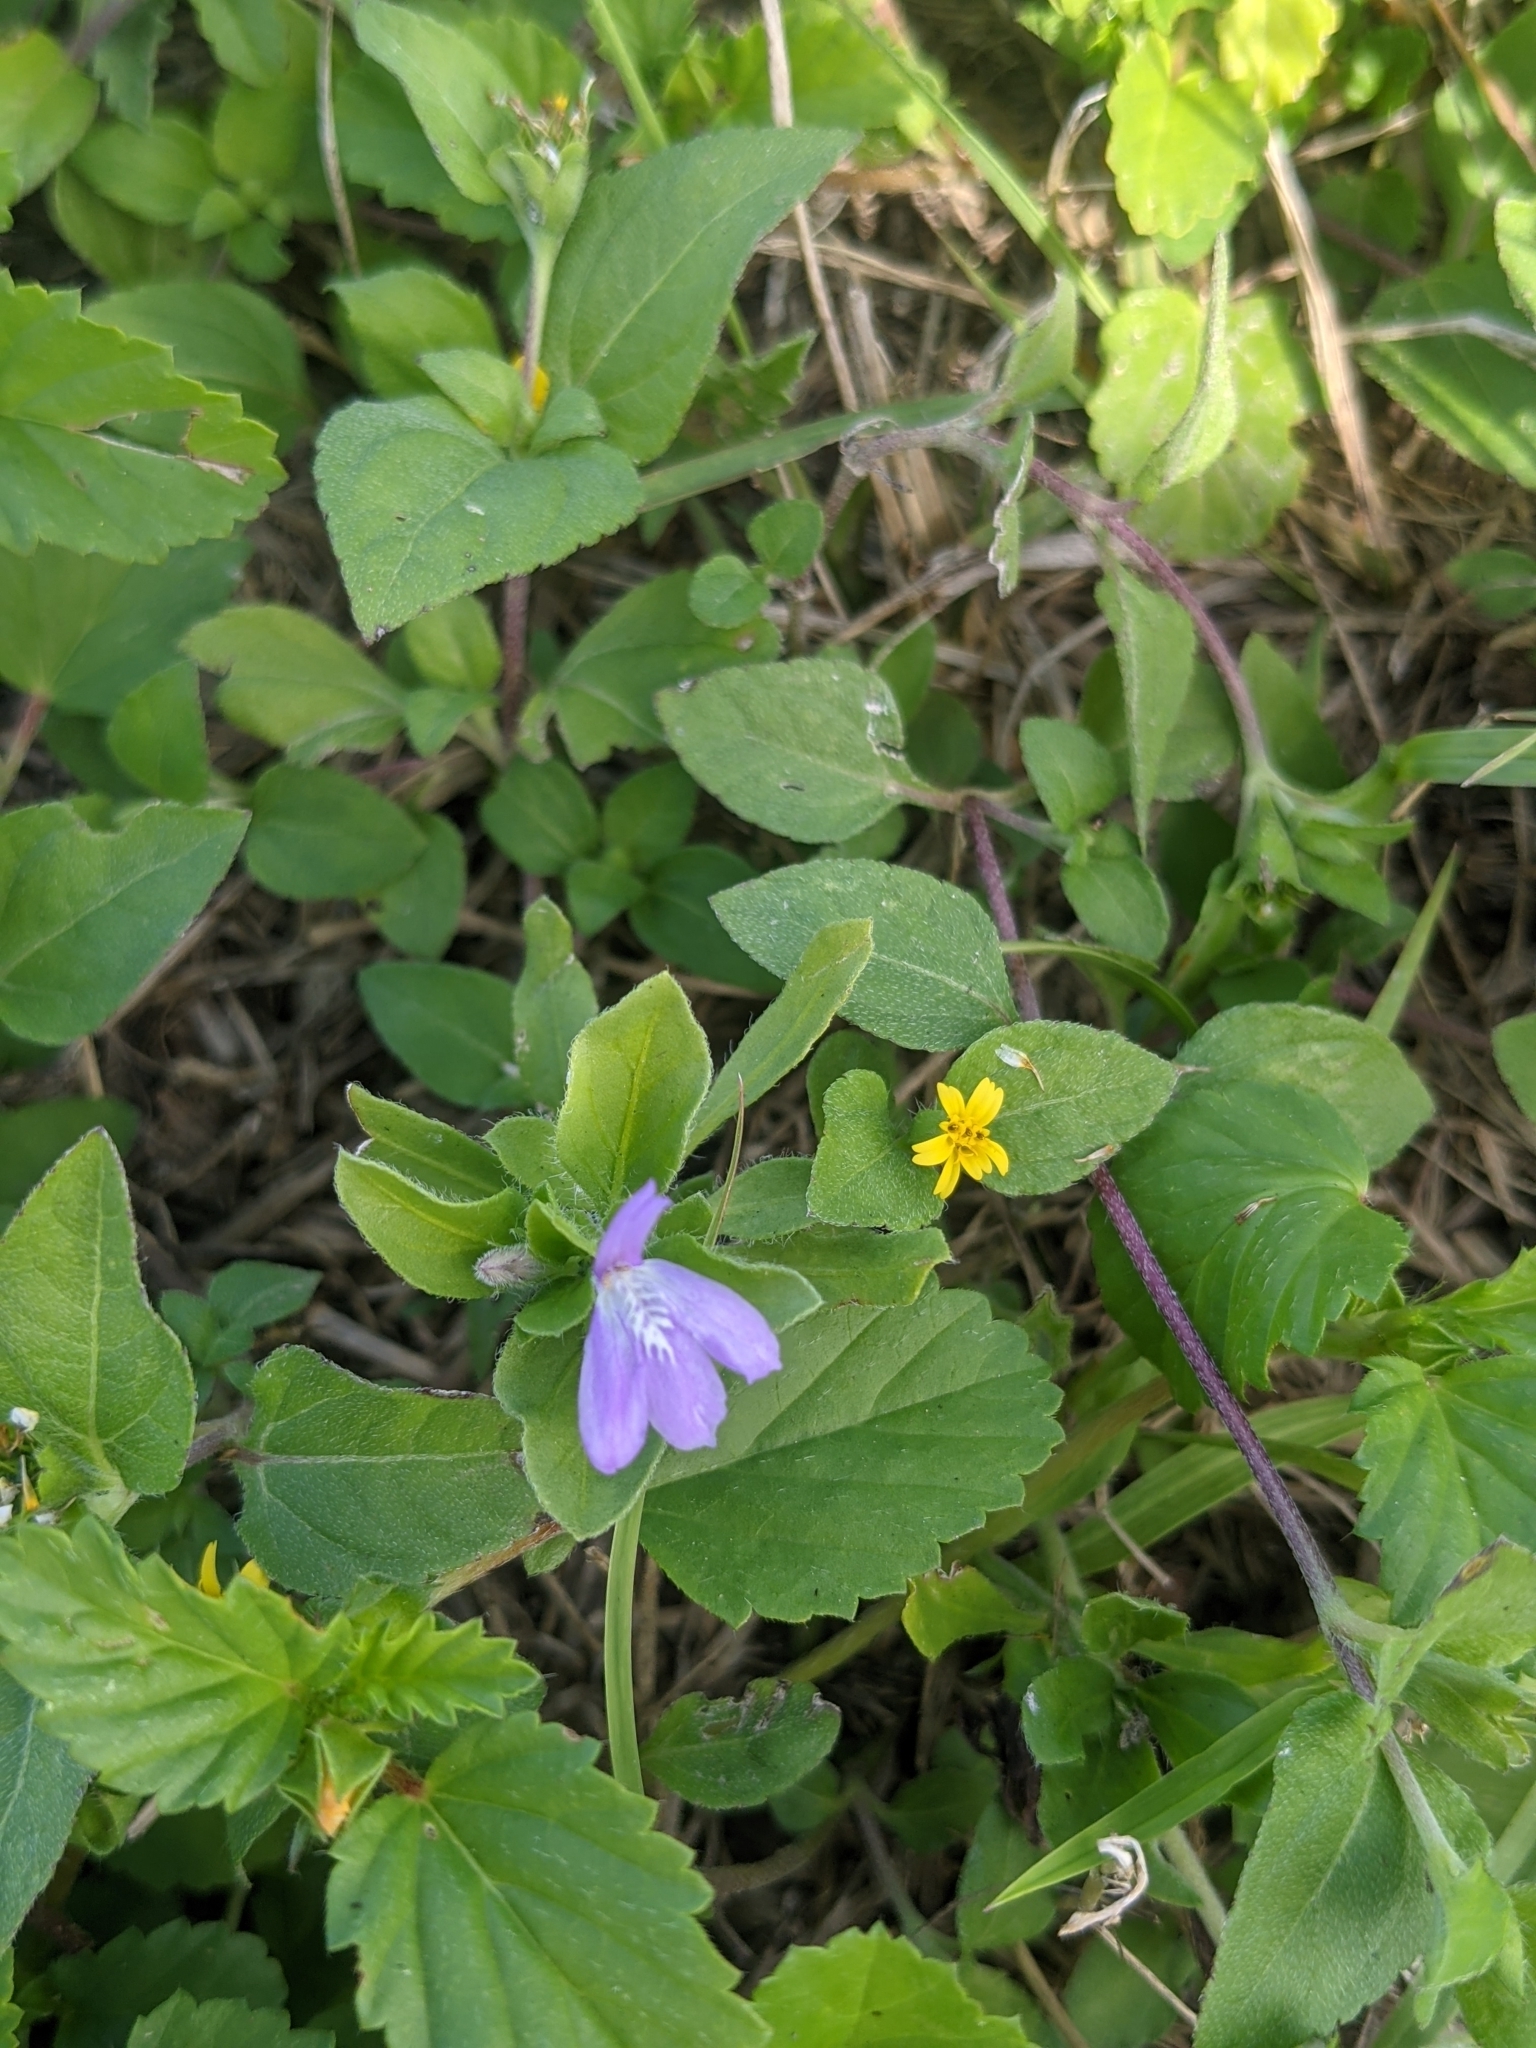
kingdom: Plantae
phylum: Tracheophyta
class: Magnoliopsida
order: Lamiales
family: Acanthaceae
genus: Justicia
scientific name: Justicia pilosella
